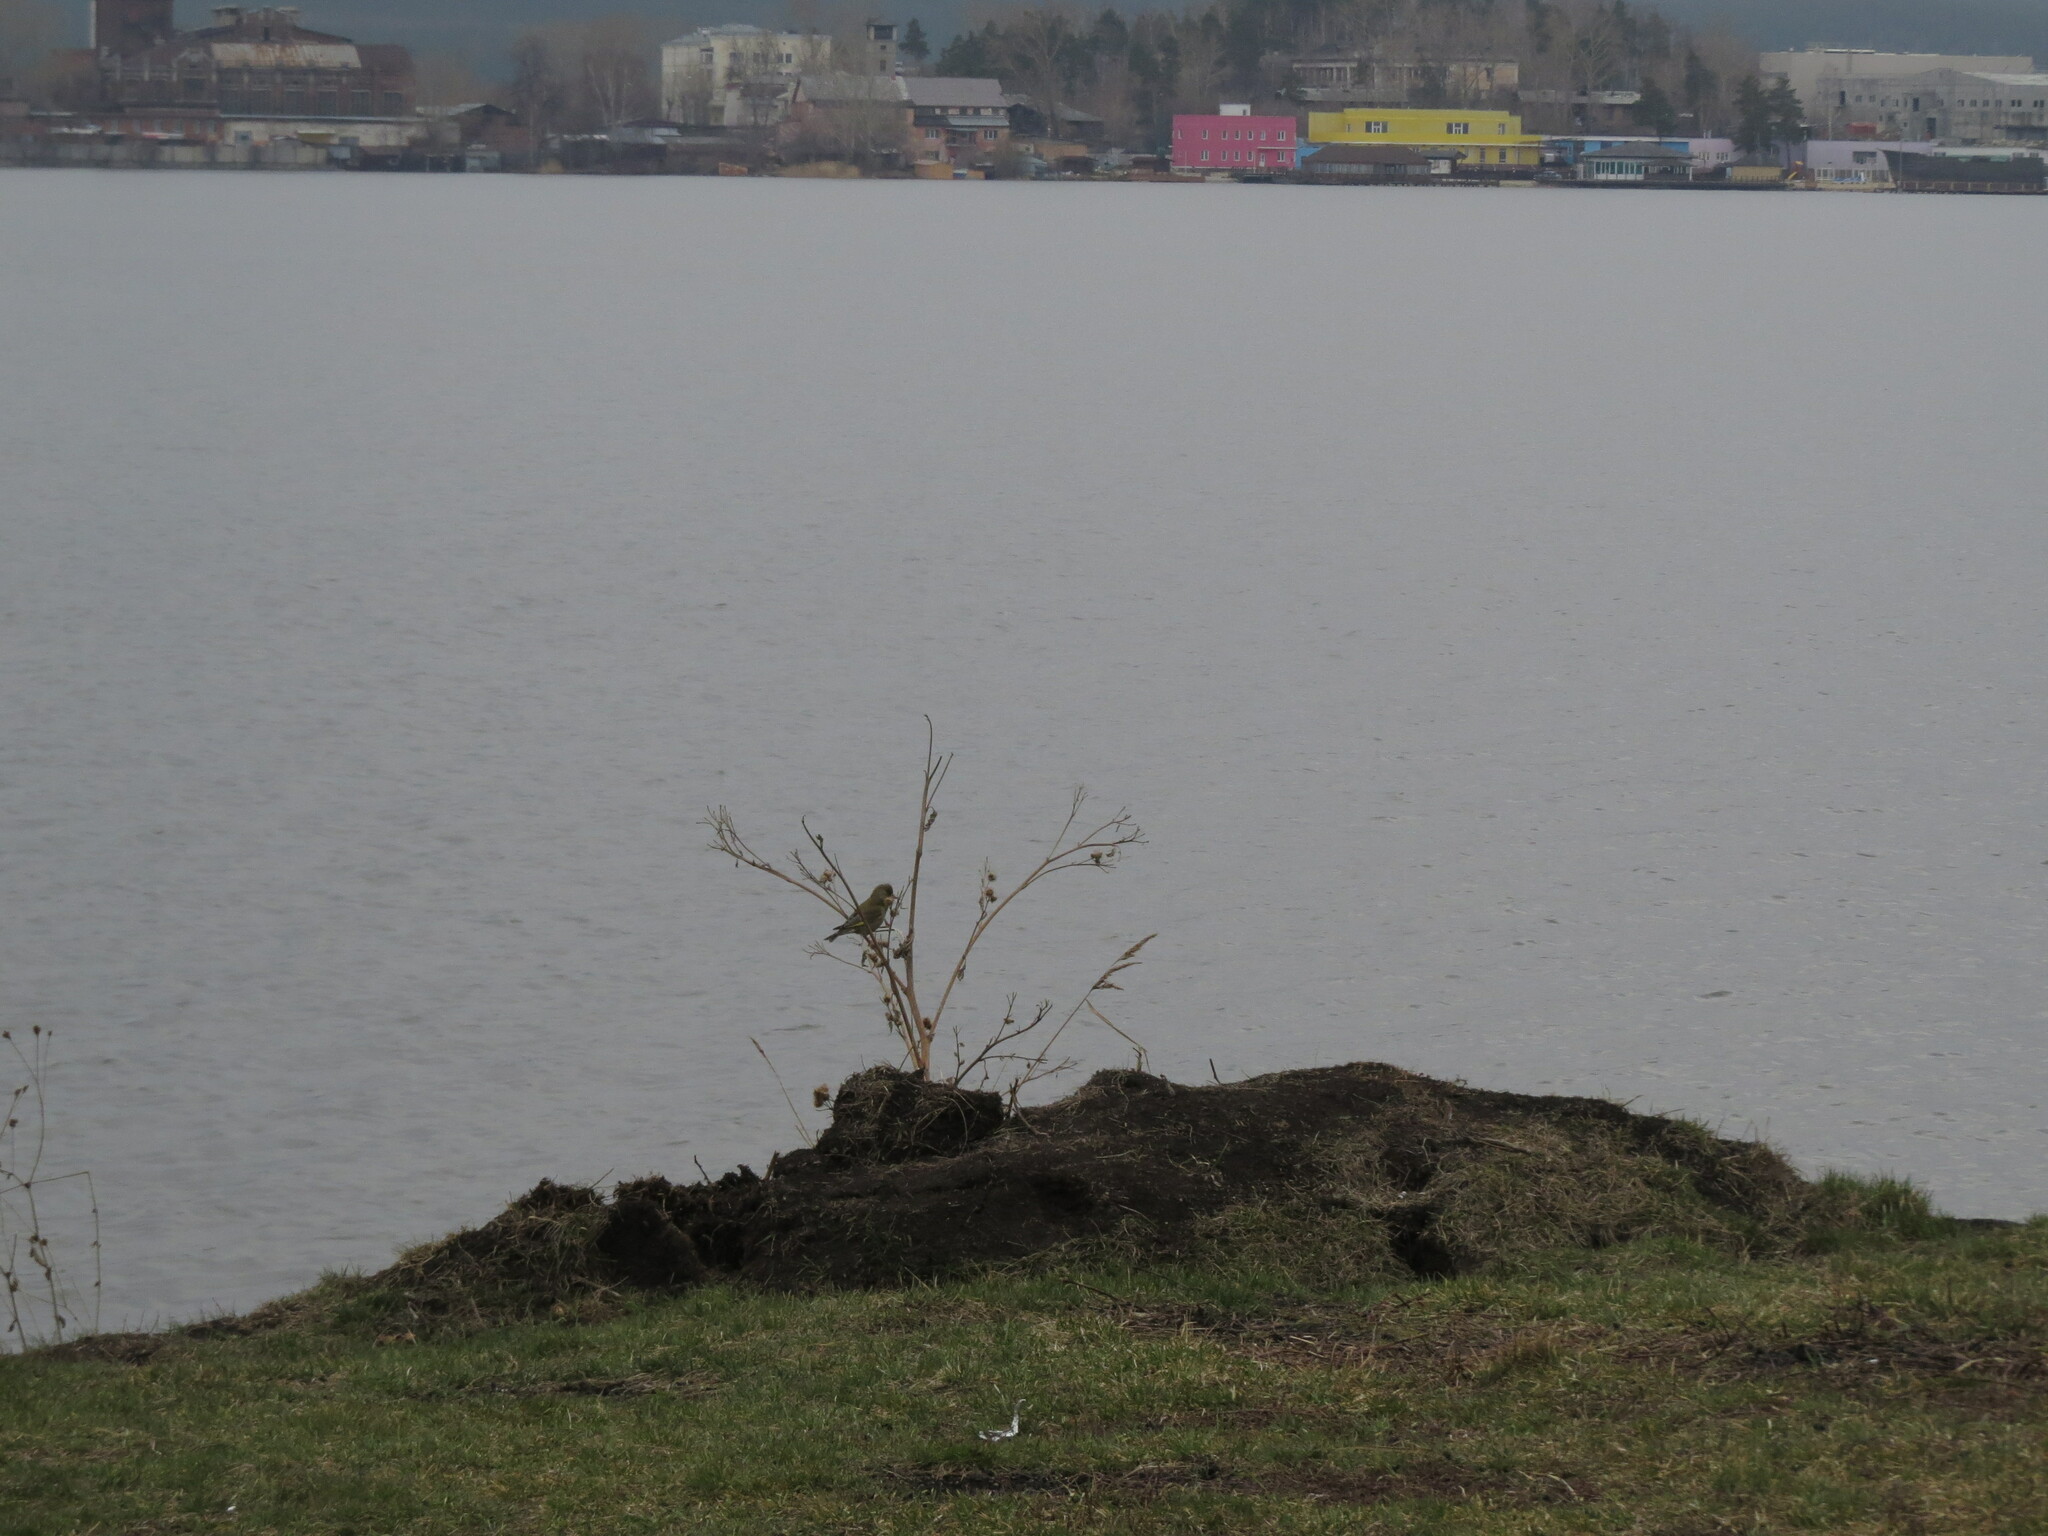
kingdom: Plantae
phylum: Tracheophyta
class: Liliopsida
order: Poales
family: Poaceae
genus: Chloris
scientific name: Chloris chloris
